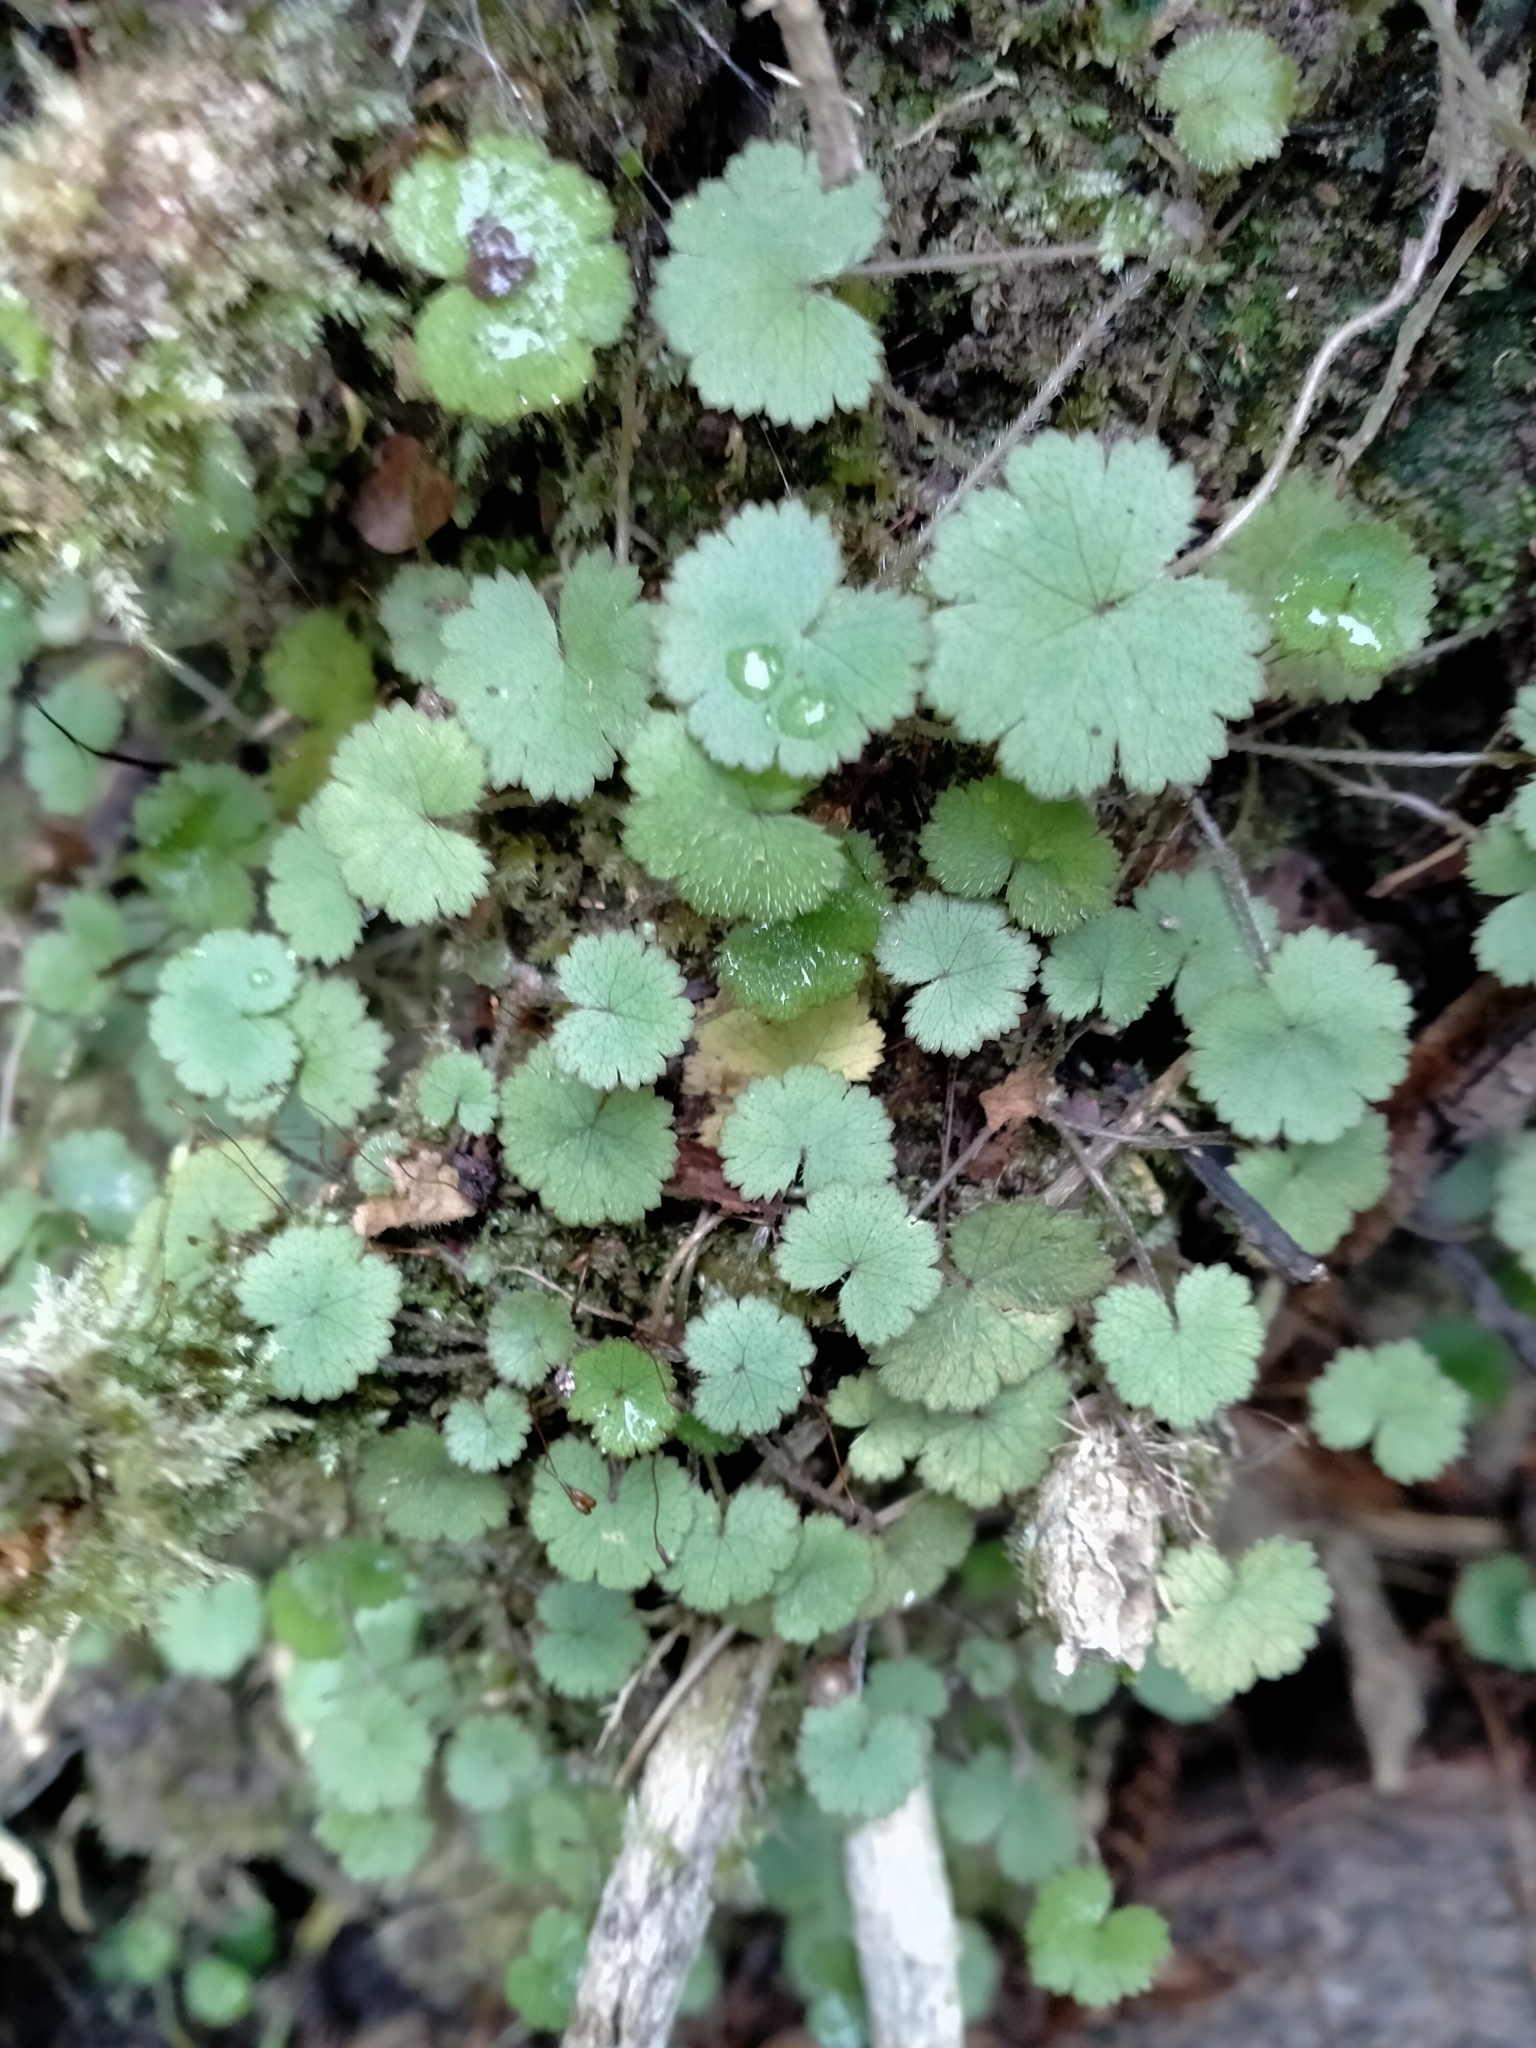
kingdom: Plantae
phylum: Tracheophyta
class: Magnoliopsida
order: Apiales
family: Araliaceae
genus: Hydrocotyle
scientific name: Hydrocotyle moschata
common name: Hairy pennywort
